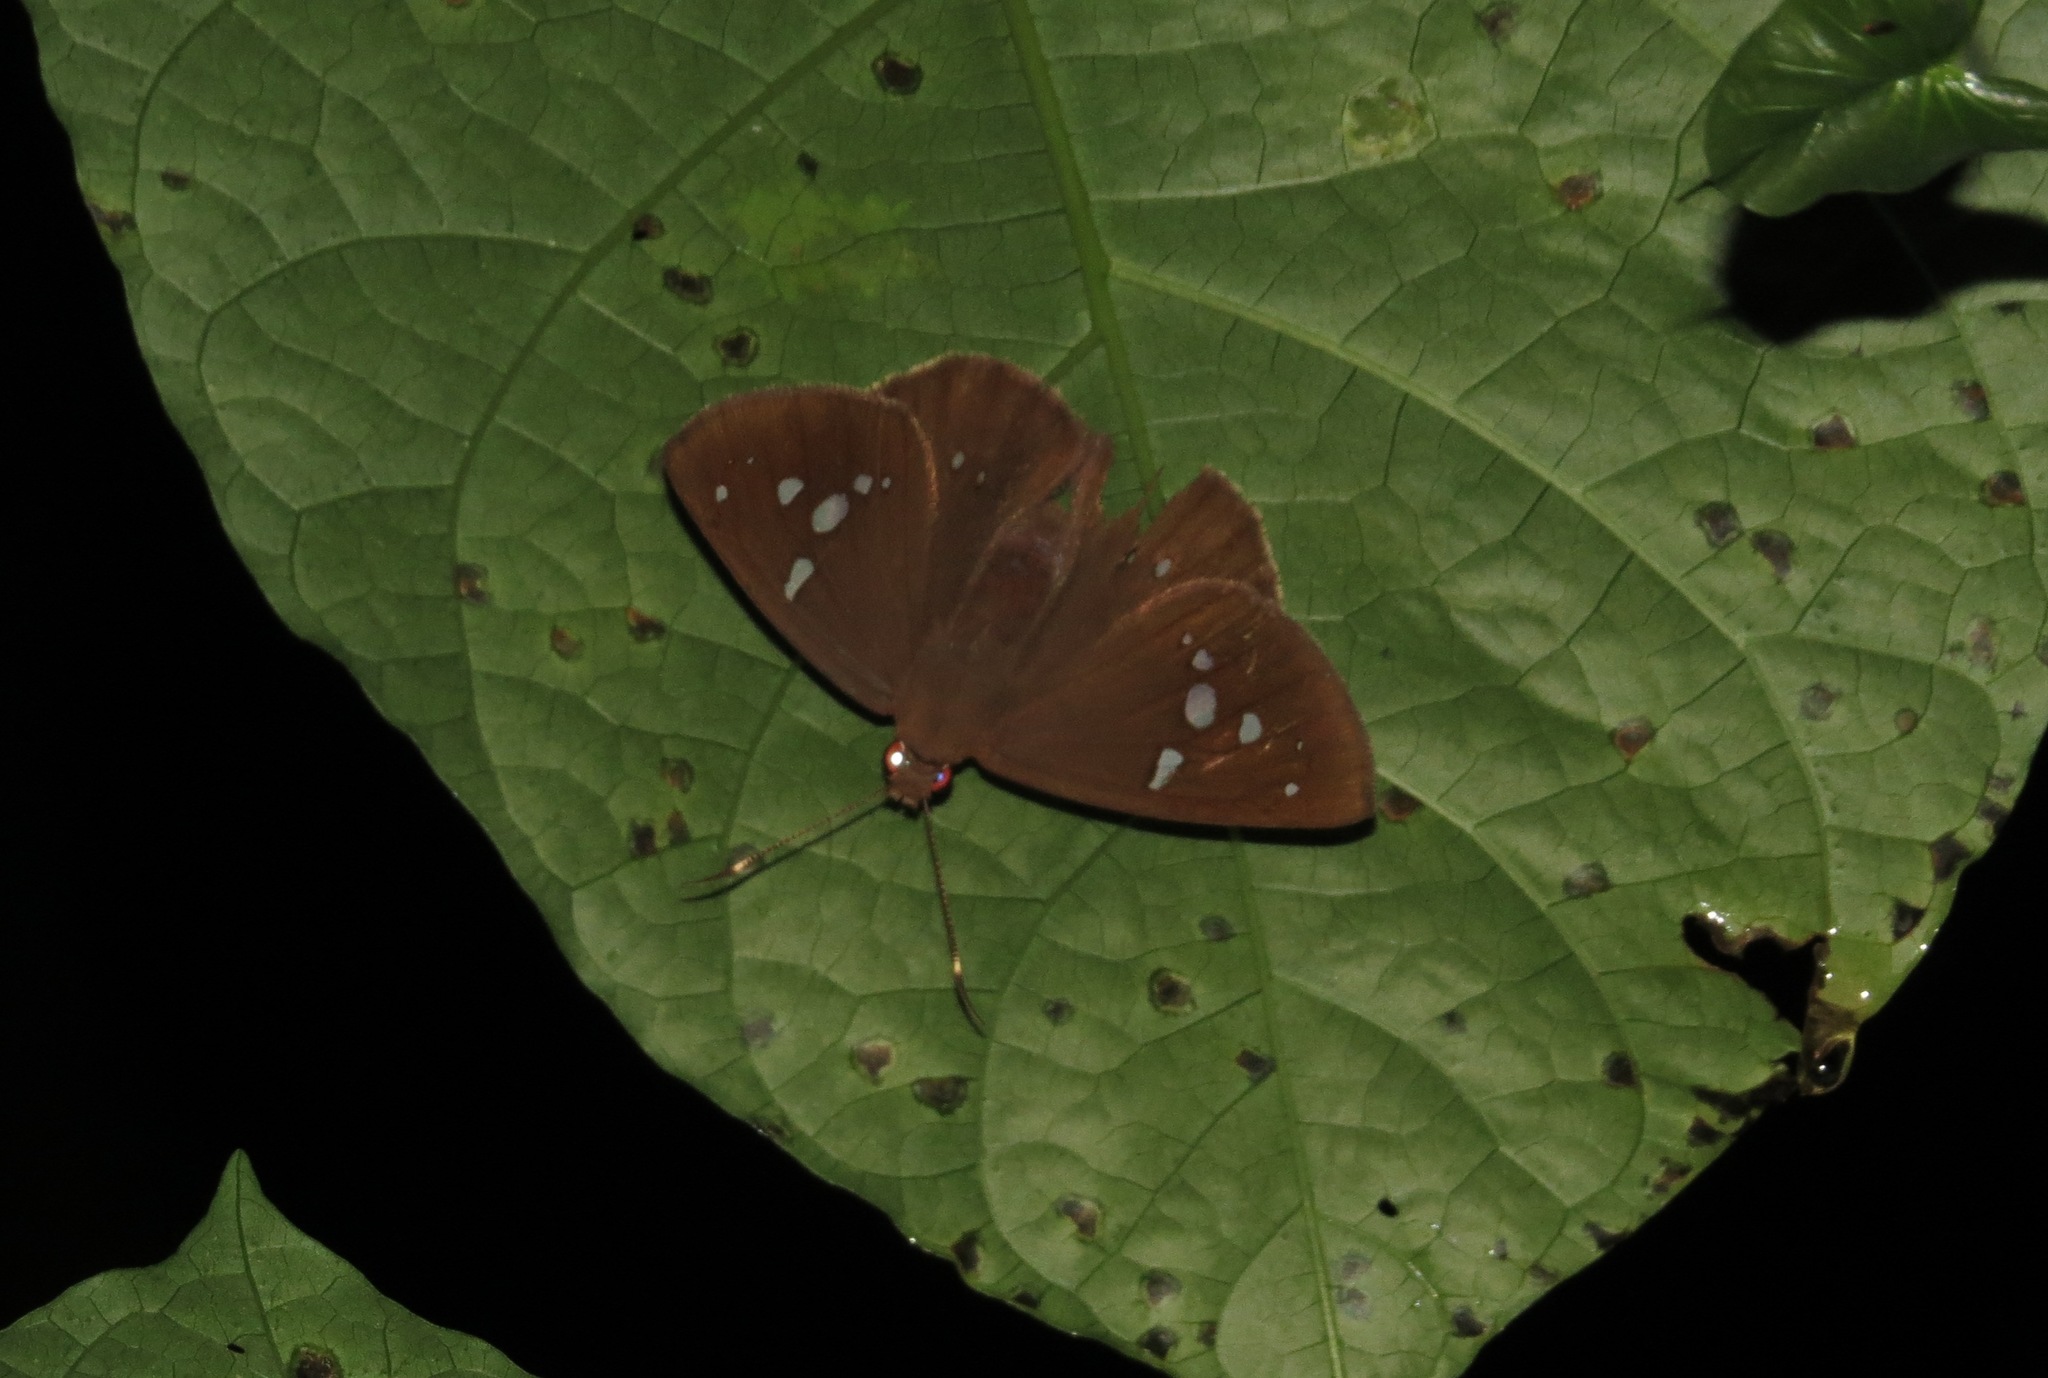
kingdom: Animalia
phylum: Arthropoda
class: Insecta
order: Lepidoptera
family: Hesperiidae
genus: Salatis
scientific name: Salatis salatis
